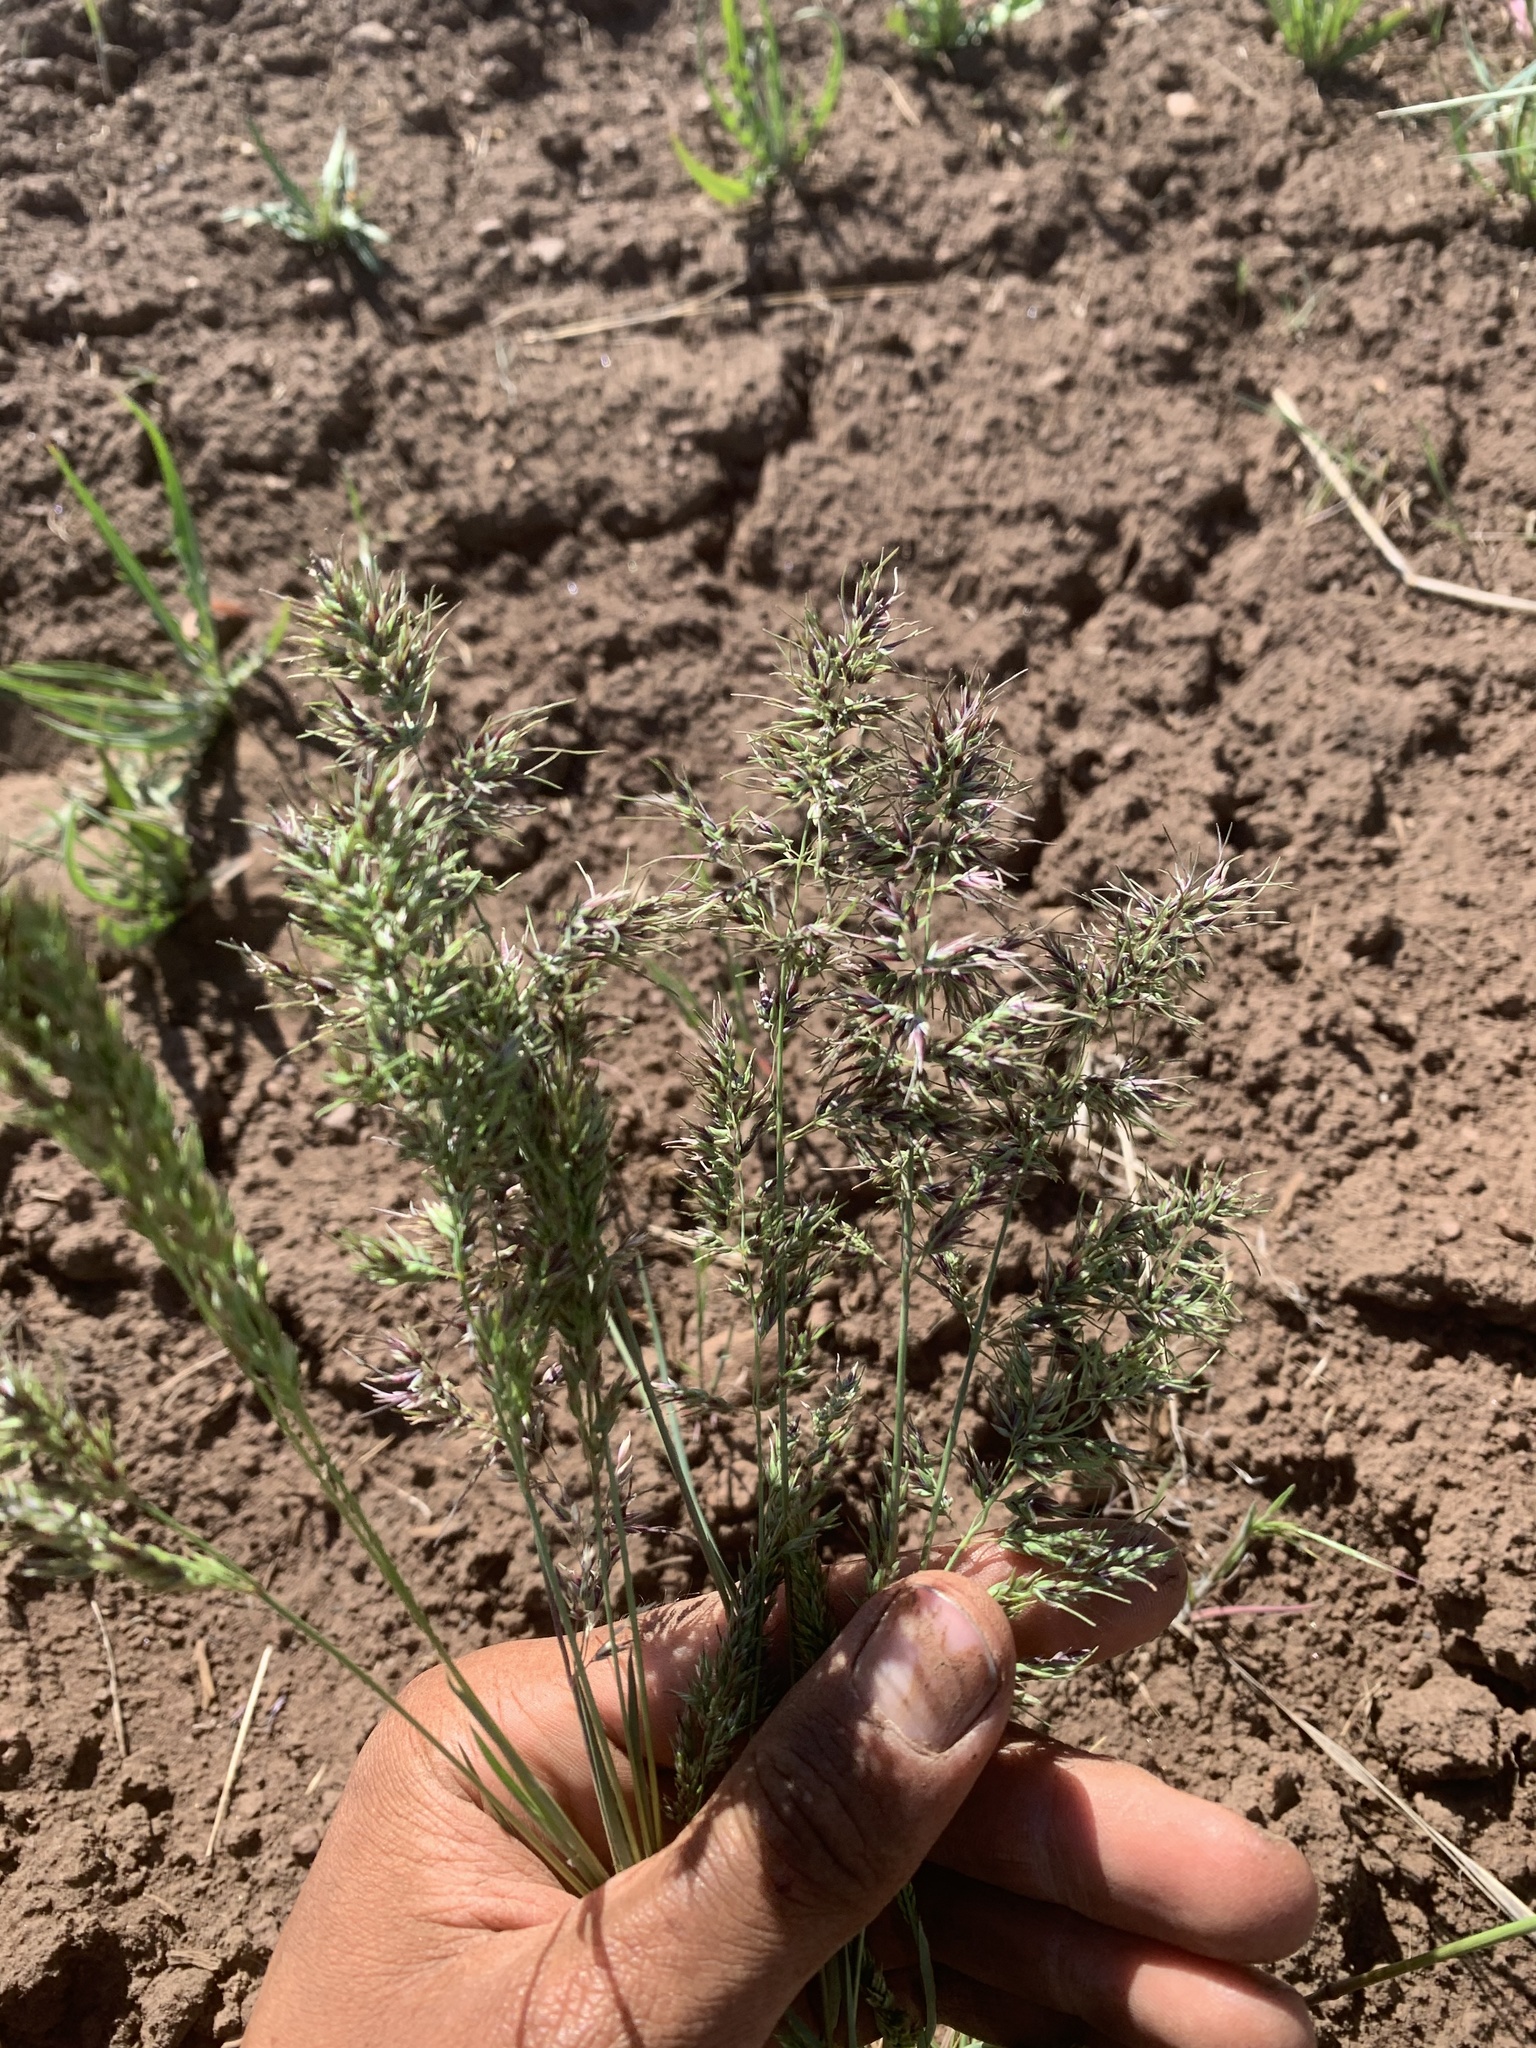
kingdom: Plantae
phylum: Tracheophyta
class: Liliopsida
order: Poales
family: Poaceae
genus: Poa
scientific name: Poa bulbosa
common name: Bulbous bluegrass
